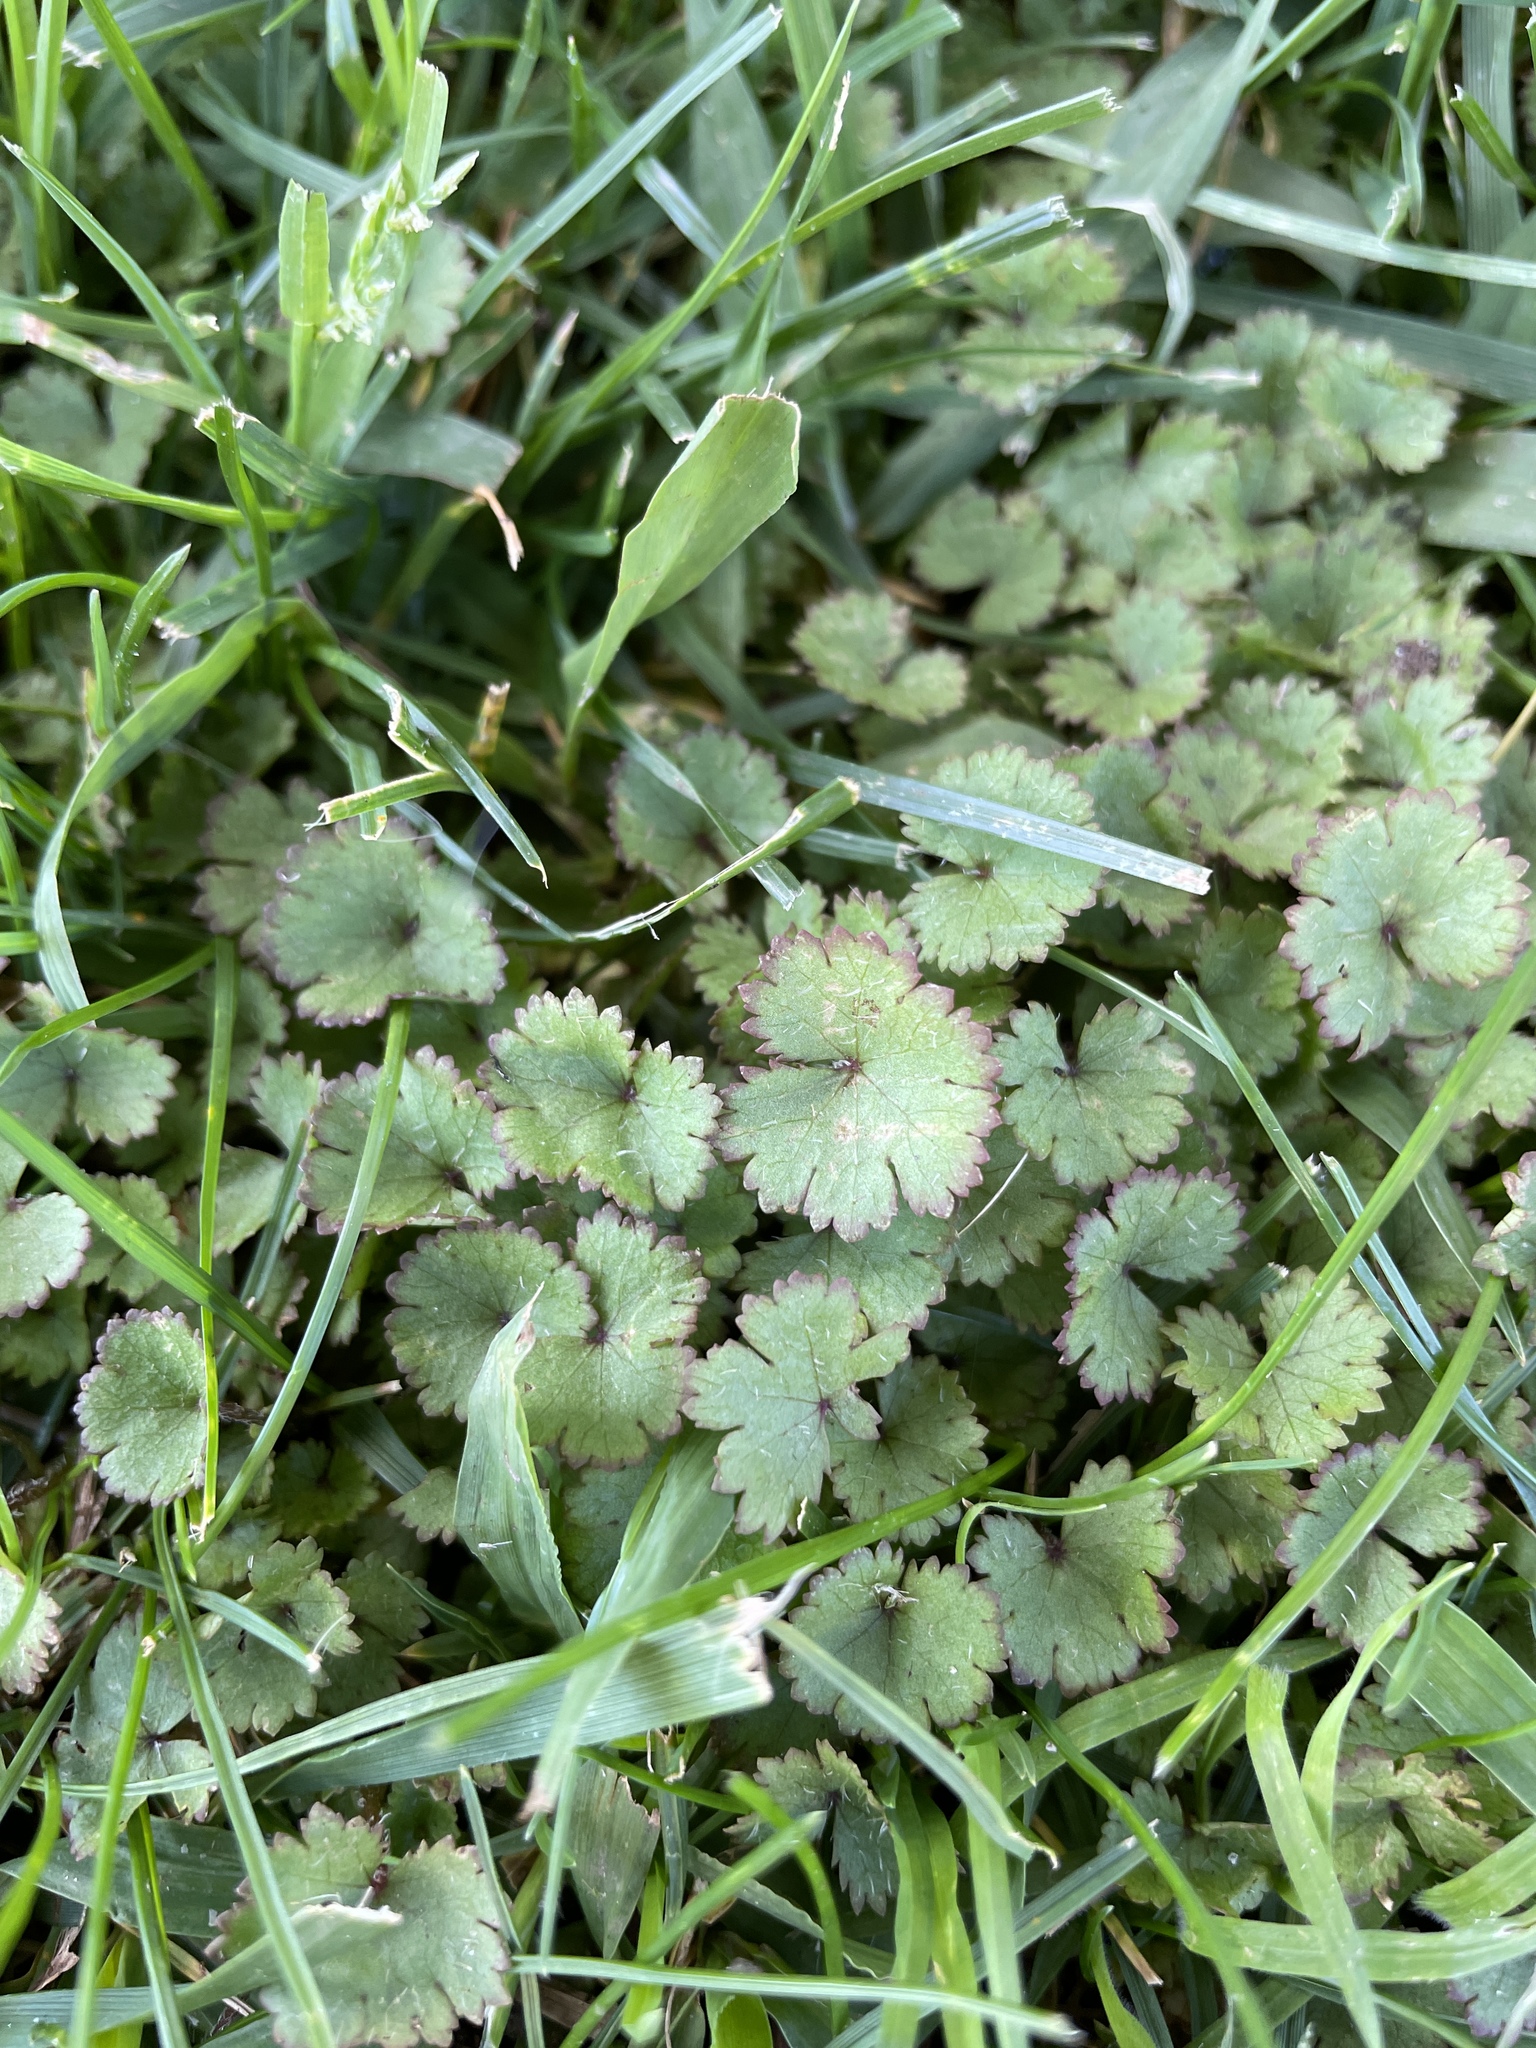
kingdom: Plantae
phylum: Tracheophyta
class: Magnoliopsida
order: Apiales
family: Araliaceae
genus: Hydrocotyle
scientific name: Hydrocotyle moschata
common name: Hairy pennywort
